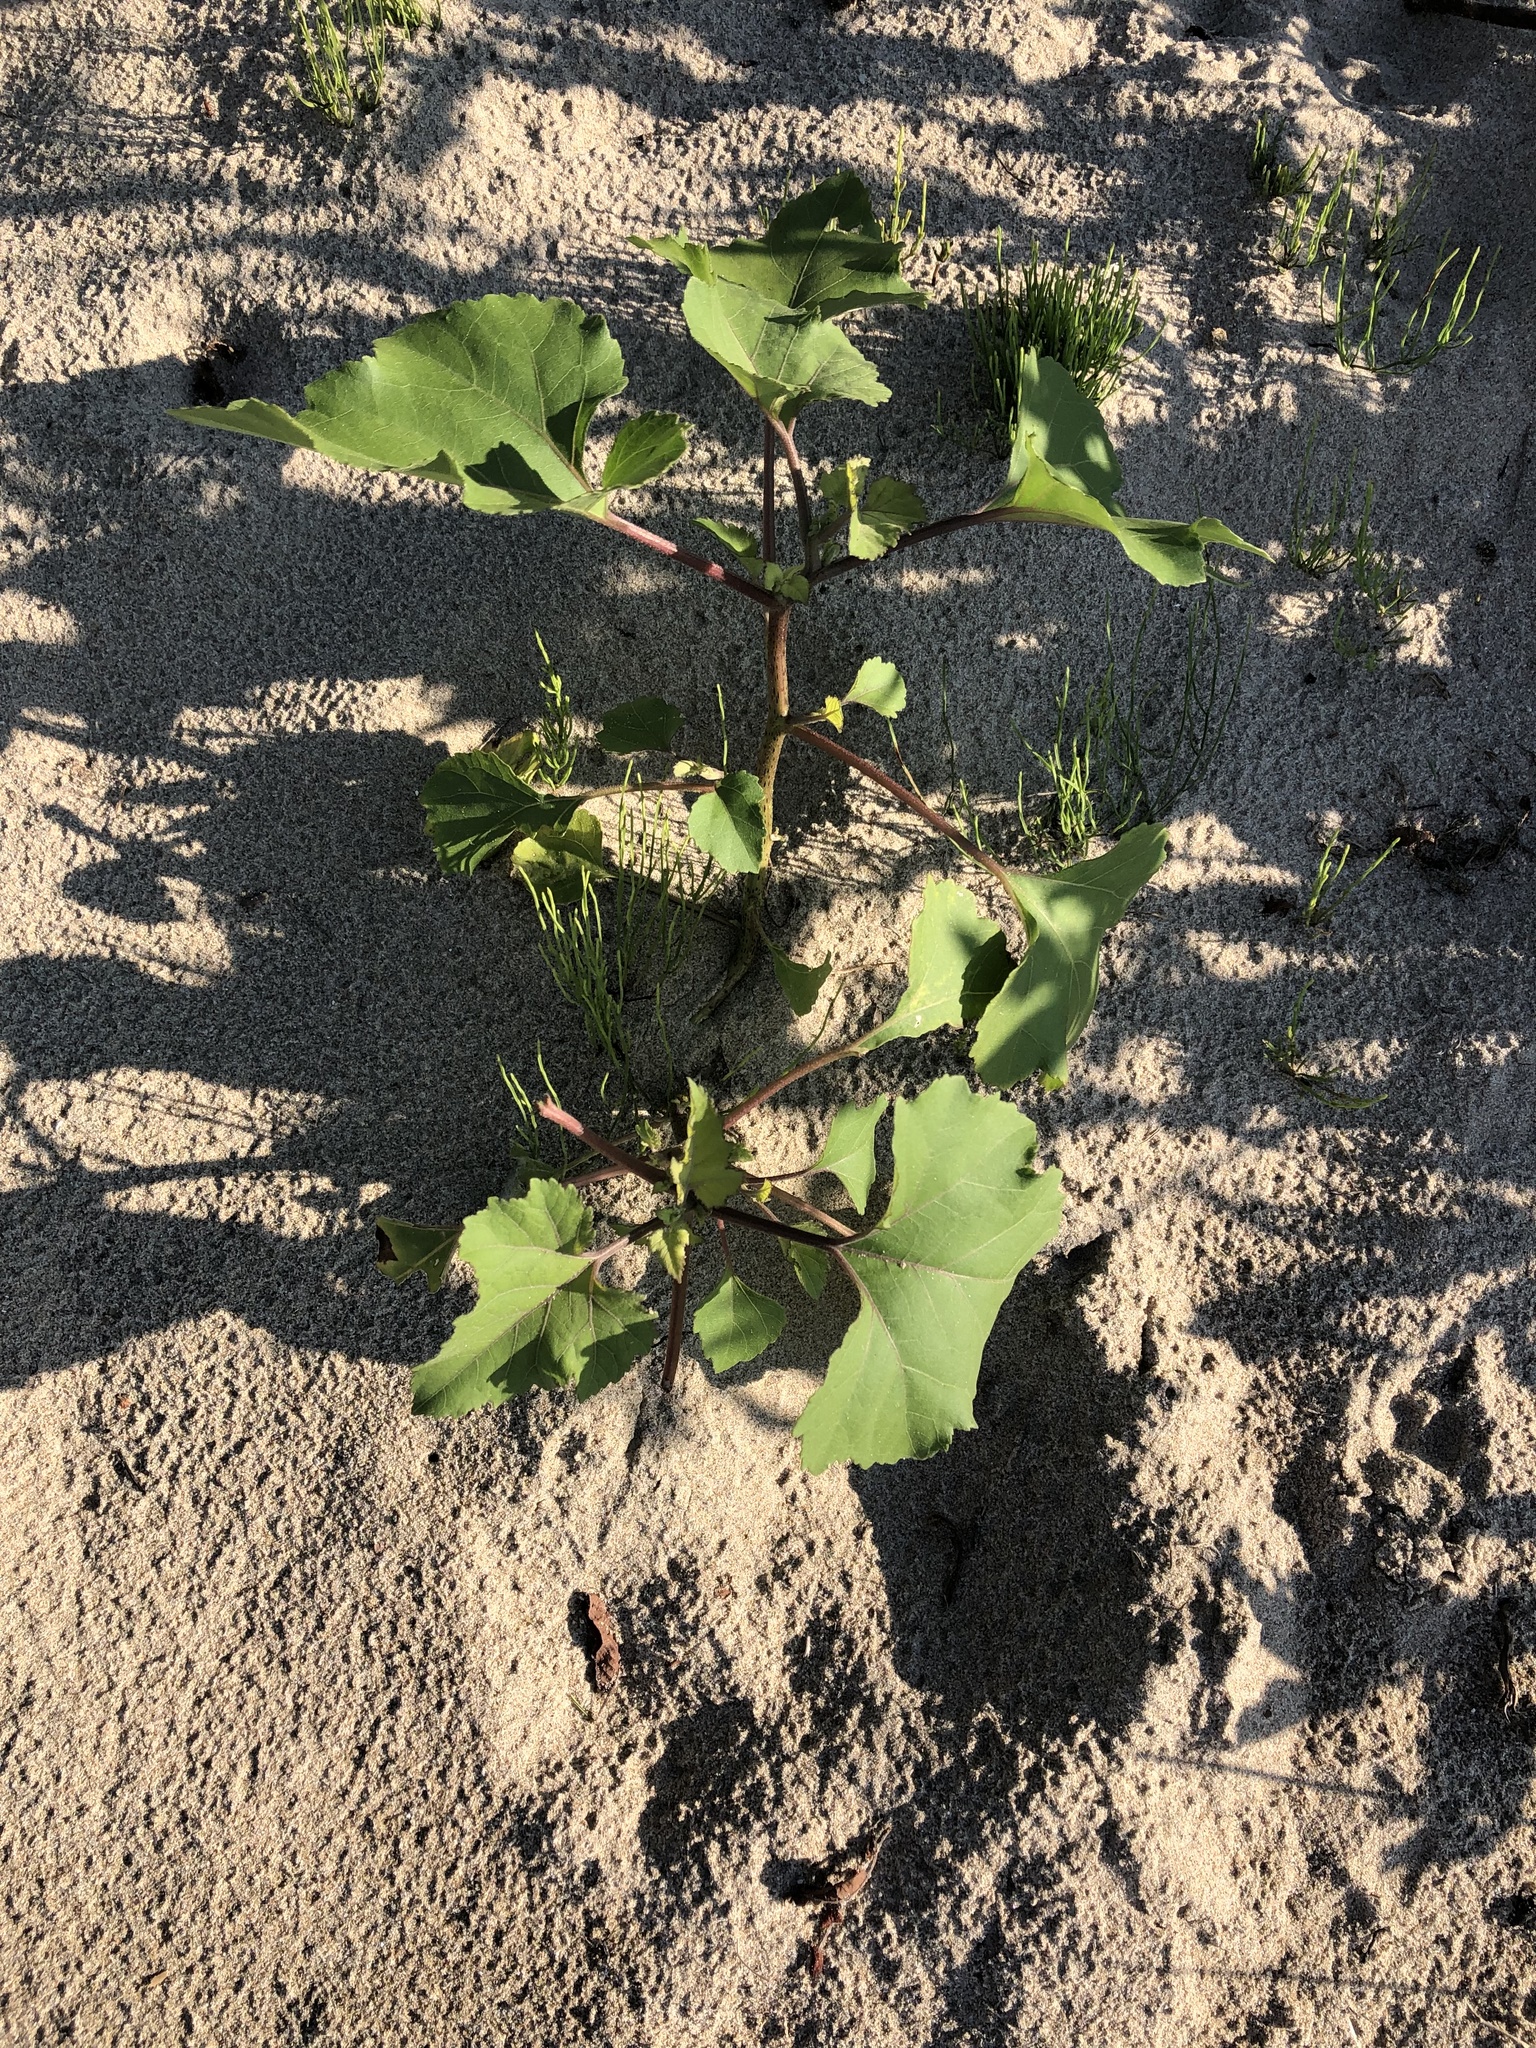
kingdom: Plantae
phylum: Tracheophyta
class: Magnoliopsida
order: Asterales
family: Asteraceae
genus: Xanthium
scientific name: Xanthium strumarium
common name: Rough cocklebur
